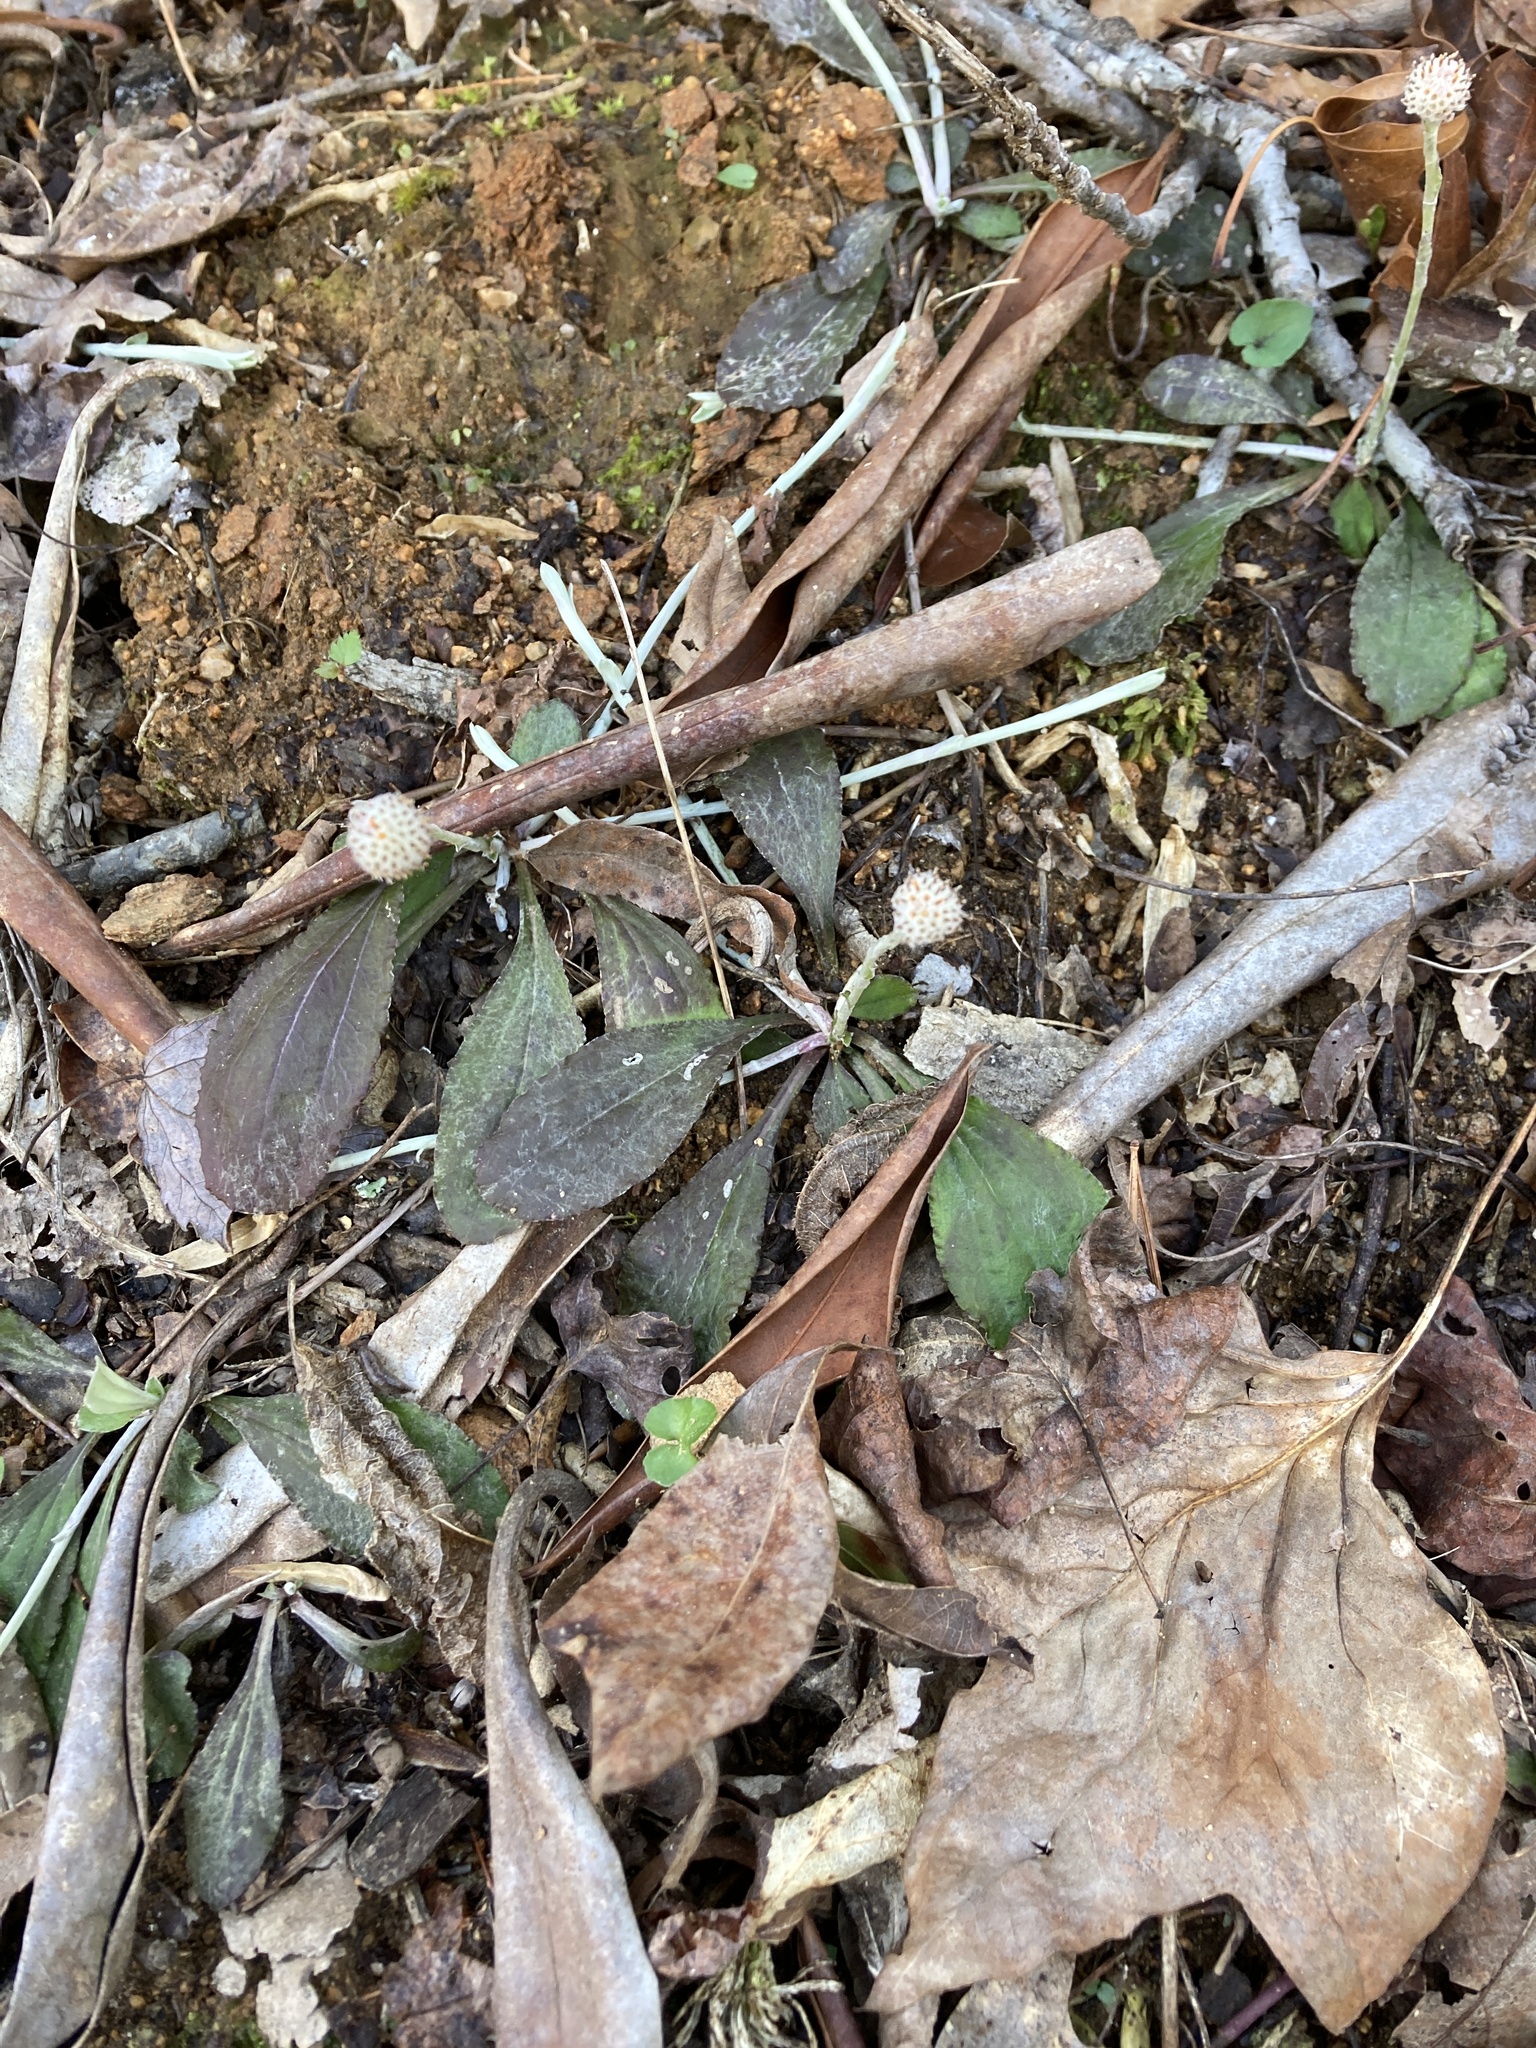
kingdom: Plantae
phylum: Tracheophyta
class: Magnoliopsida
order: Asterales
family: Asteraceae
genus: Antennaria
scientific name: Antennaria solitaria
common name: Single-head pussytoes
